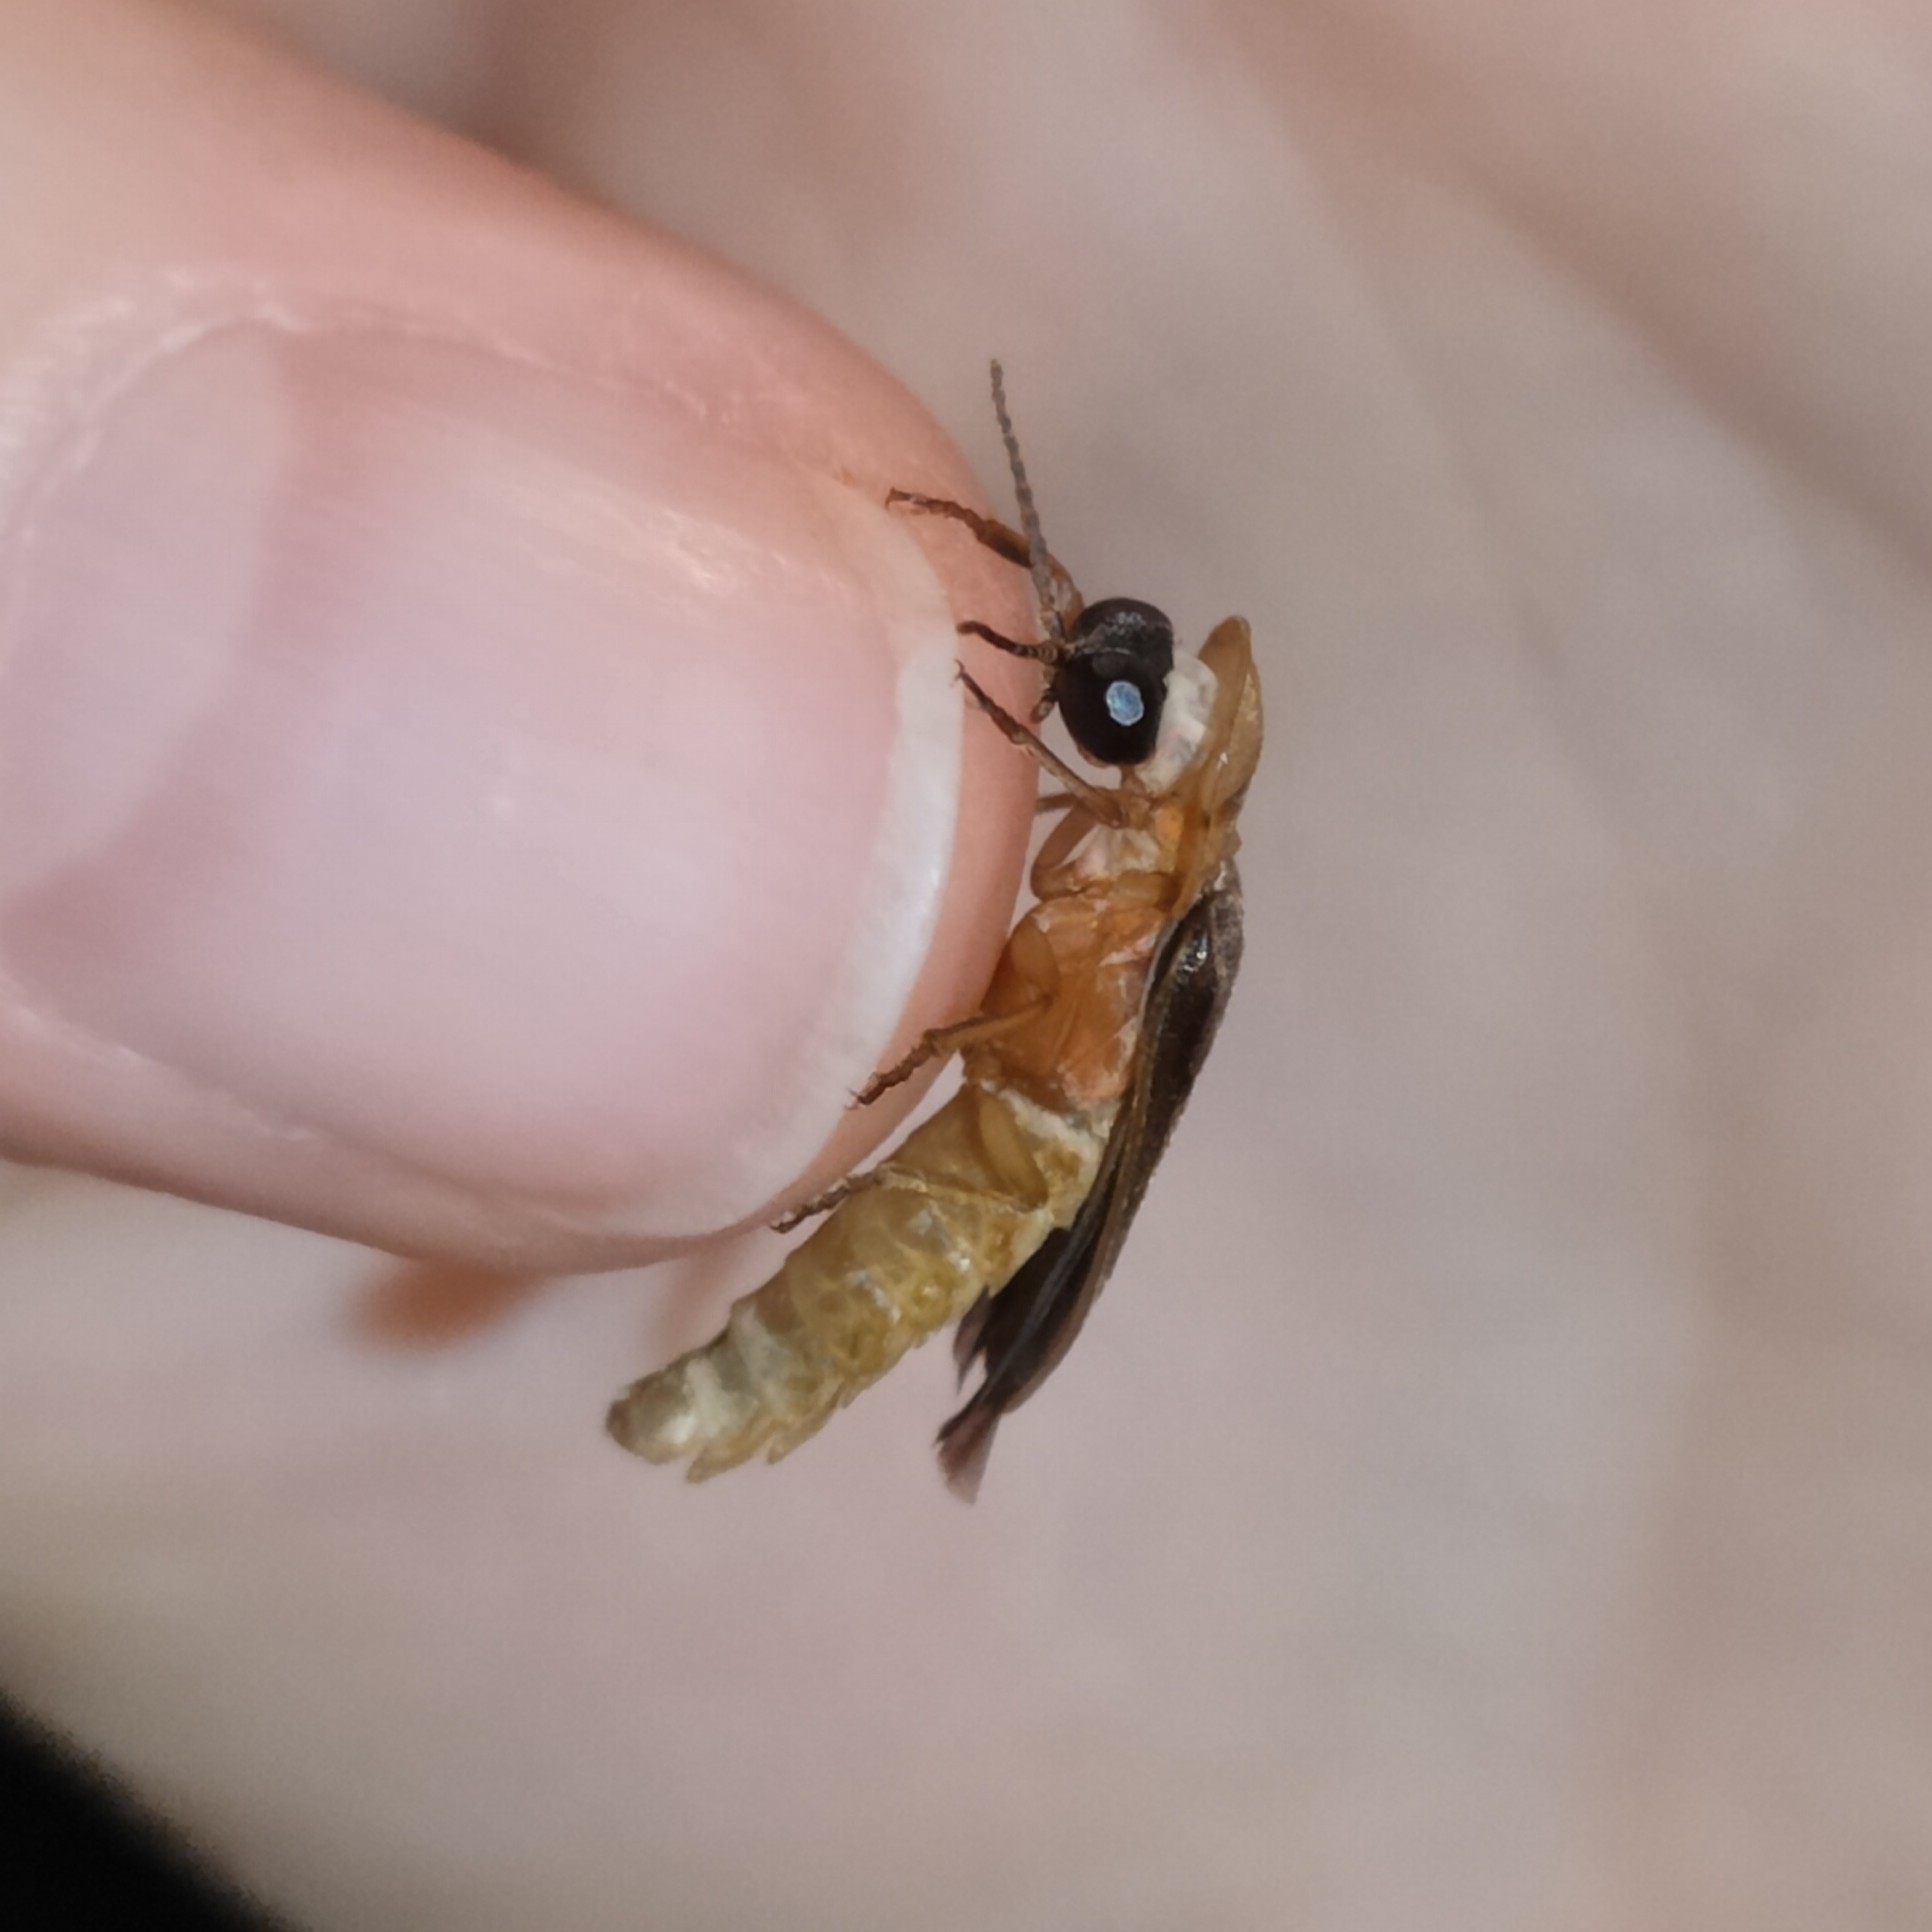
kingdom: Animalia
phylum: Arthropoda
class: Insecta
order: Coleoptera
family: Lampyridae
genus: Nyctophila
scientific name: Nyctophila reichii
